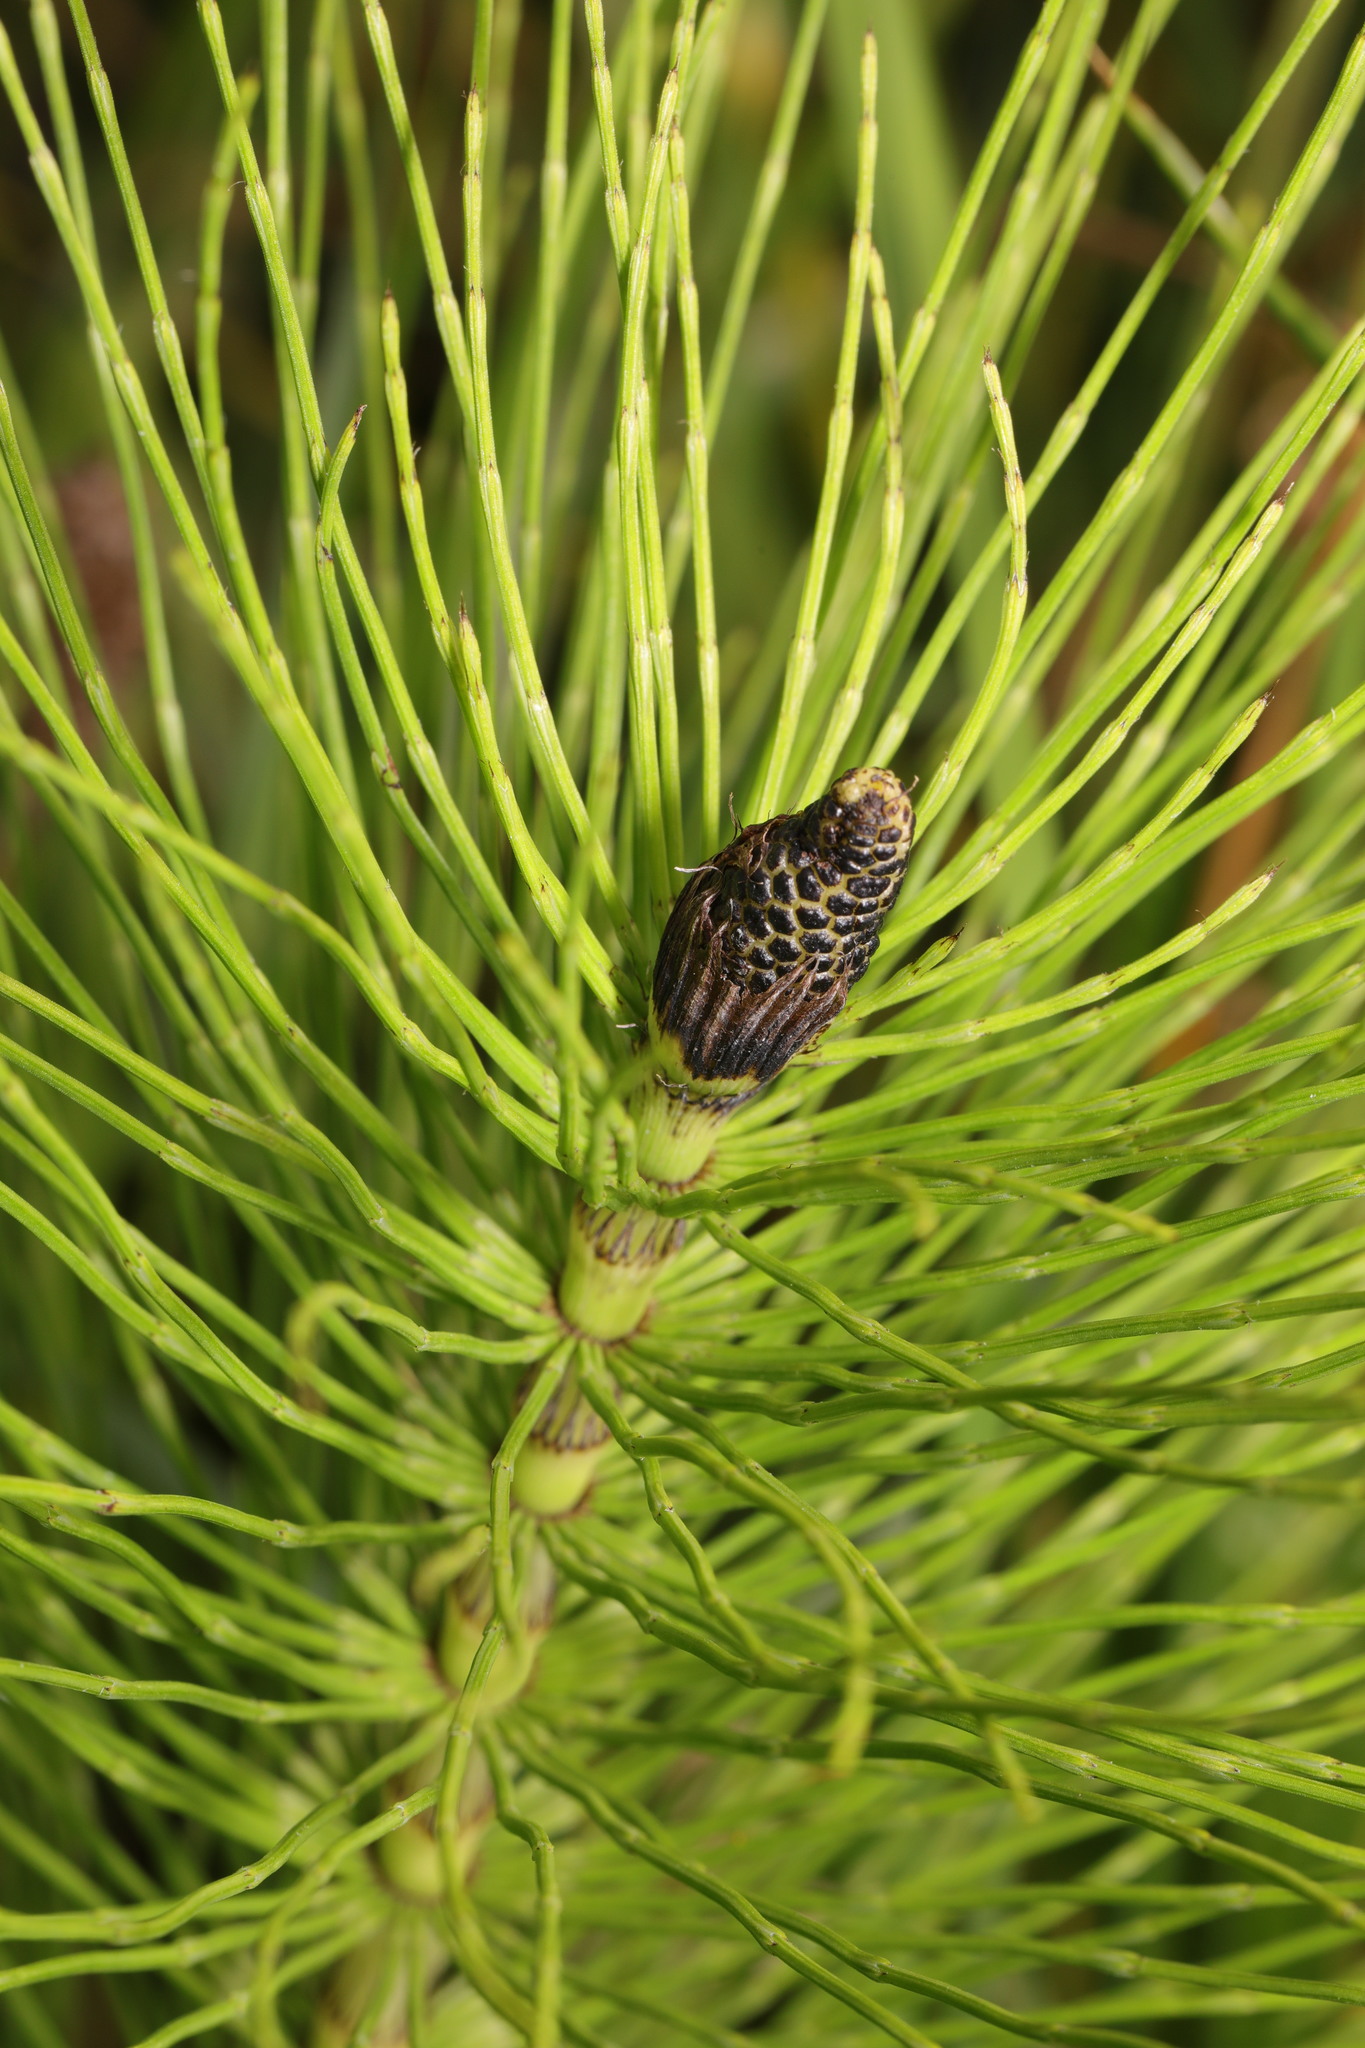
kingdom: Plantae
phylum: Tracheophyta
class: Polypodiopsida
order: Equisetales
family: Equisetaceae
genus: Equisetum
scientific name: Equisetum telmateia
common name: Great horsetail
